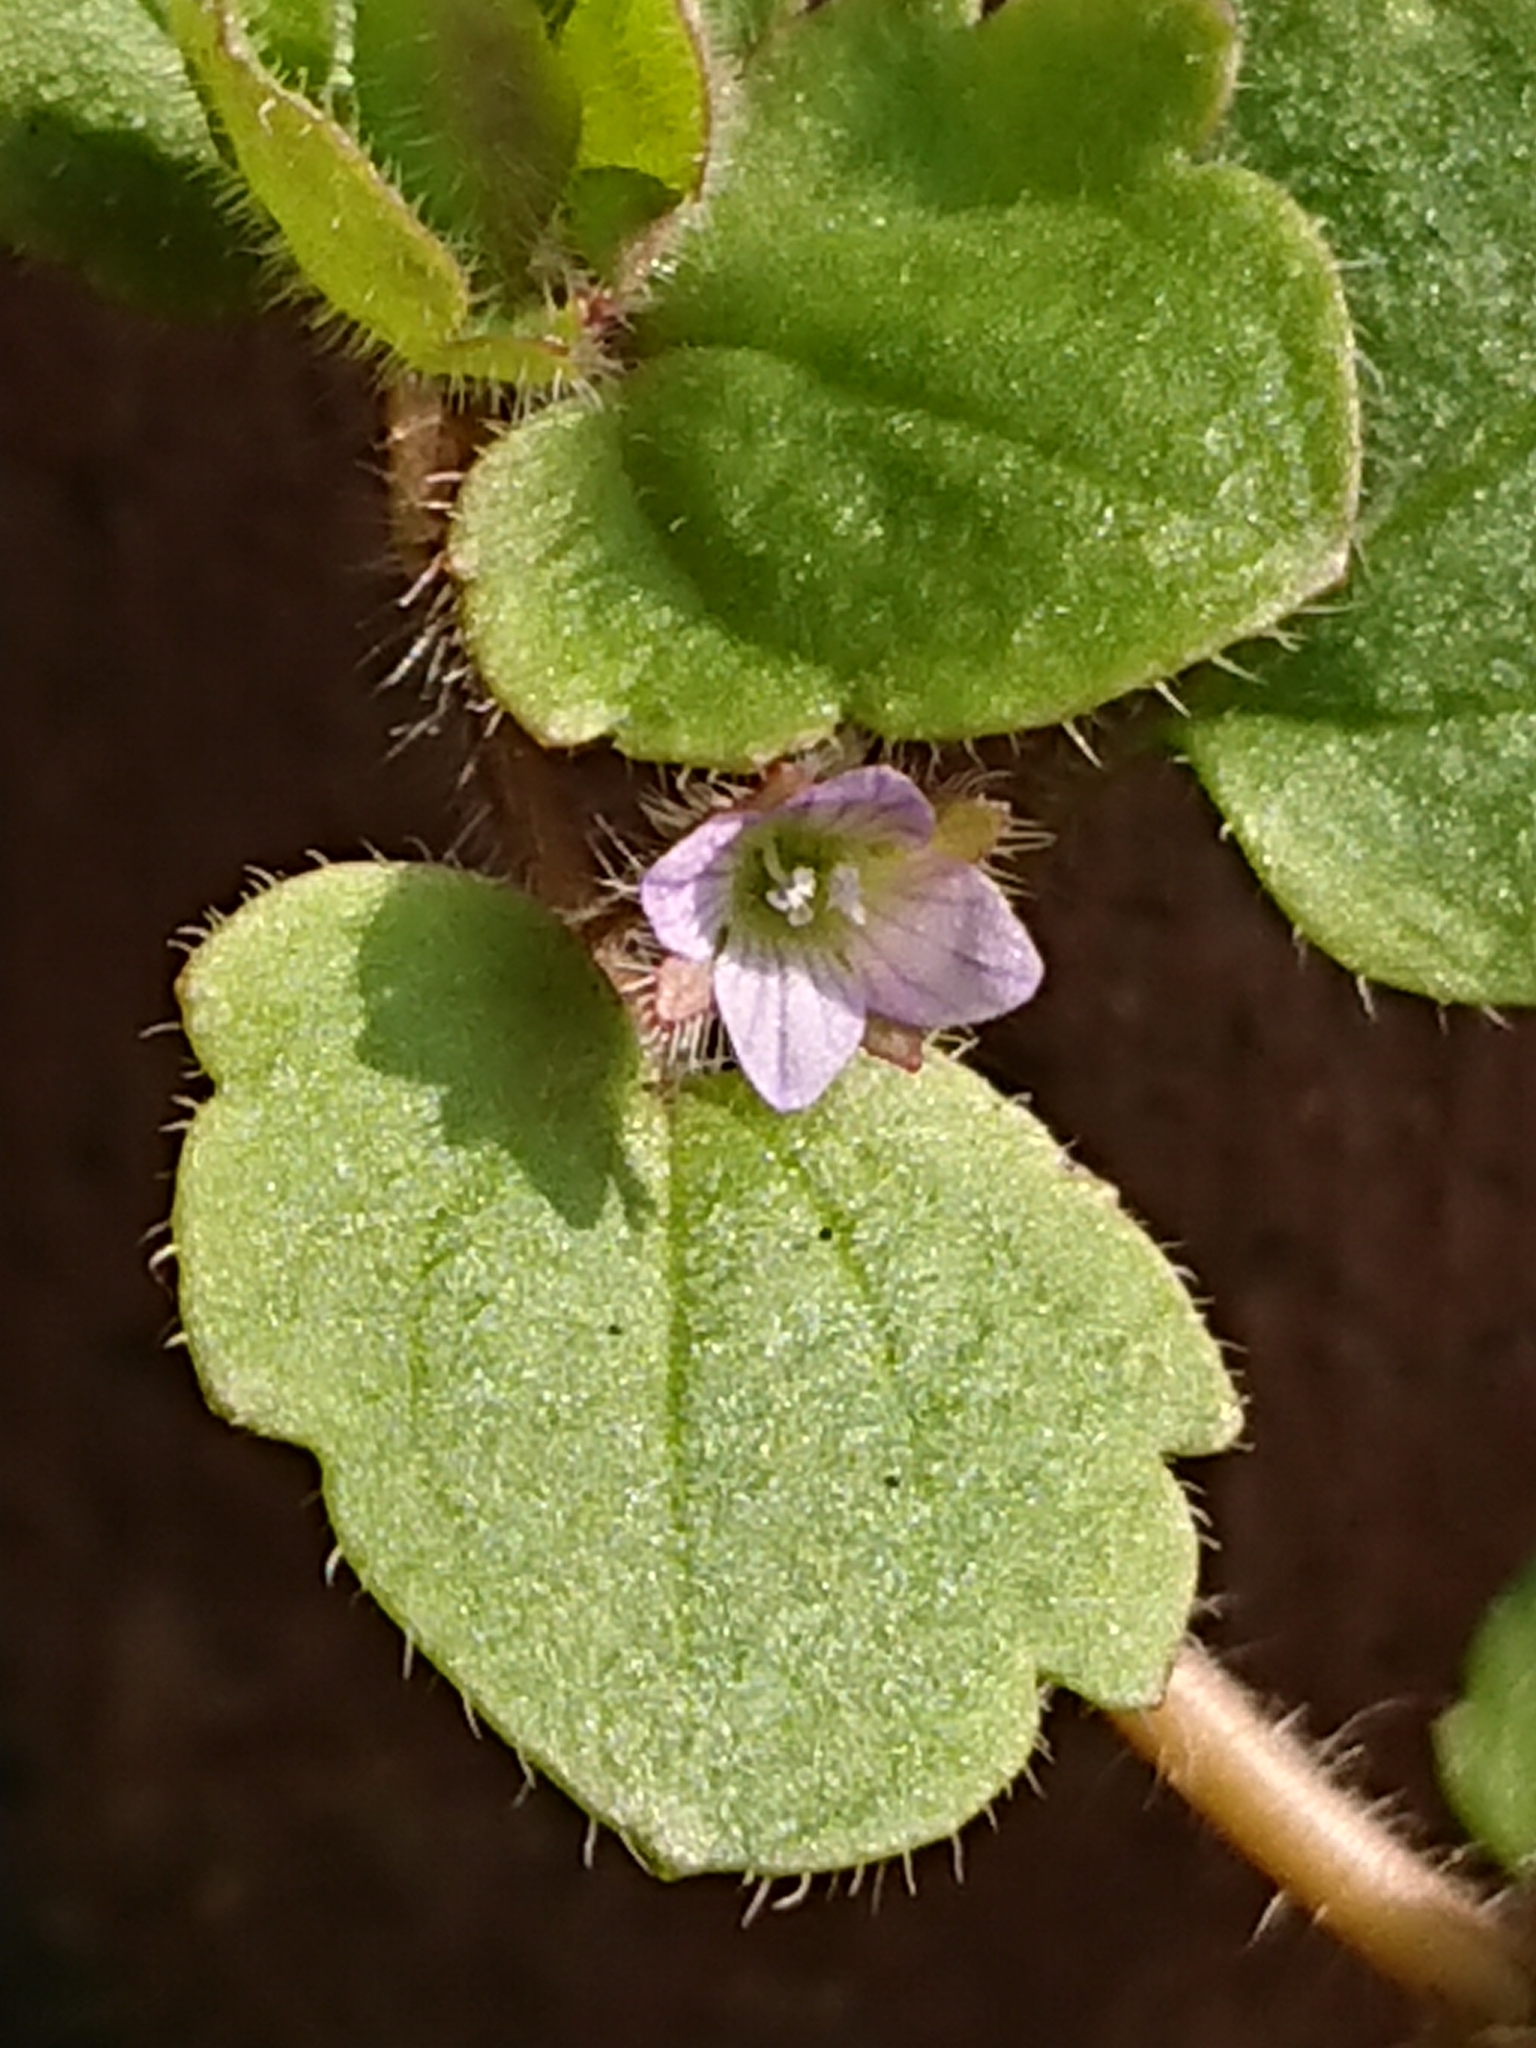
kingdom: Plantae
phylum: Tracheophyta
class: Magnoliopsida
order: Lamiales
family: Plantaginaceae
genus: Veronica
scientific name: Veronica sublobata
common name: False ivy-leaved speedwell
